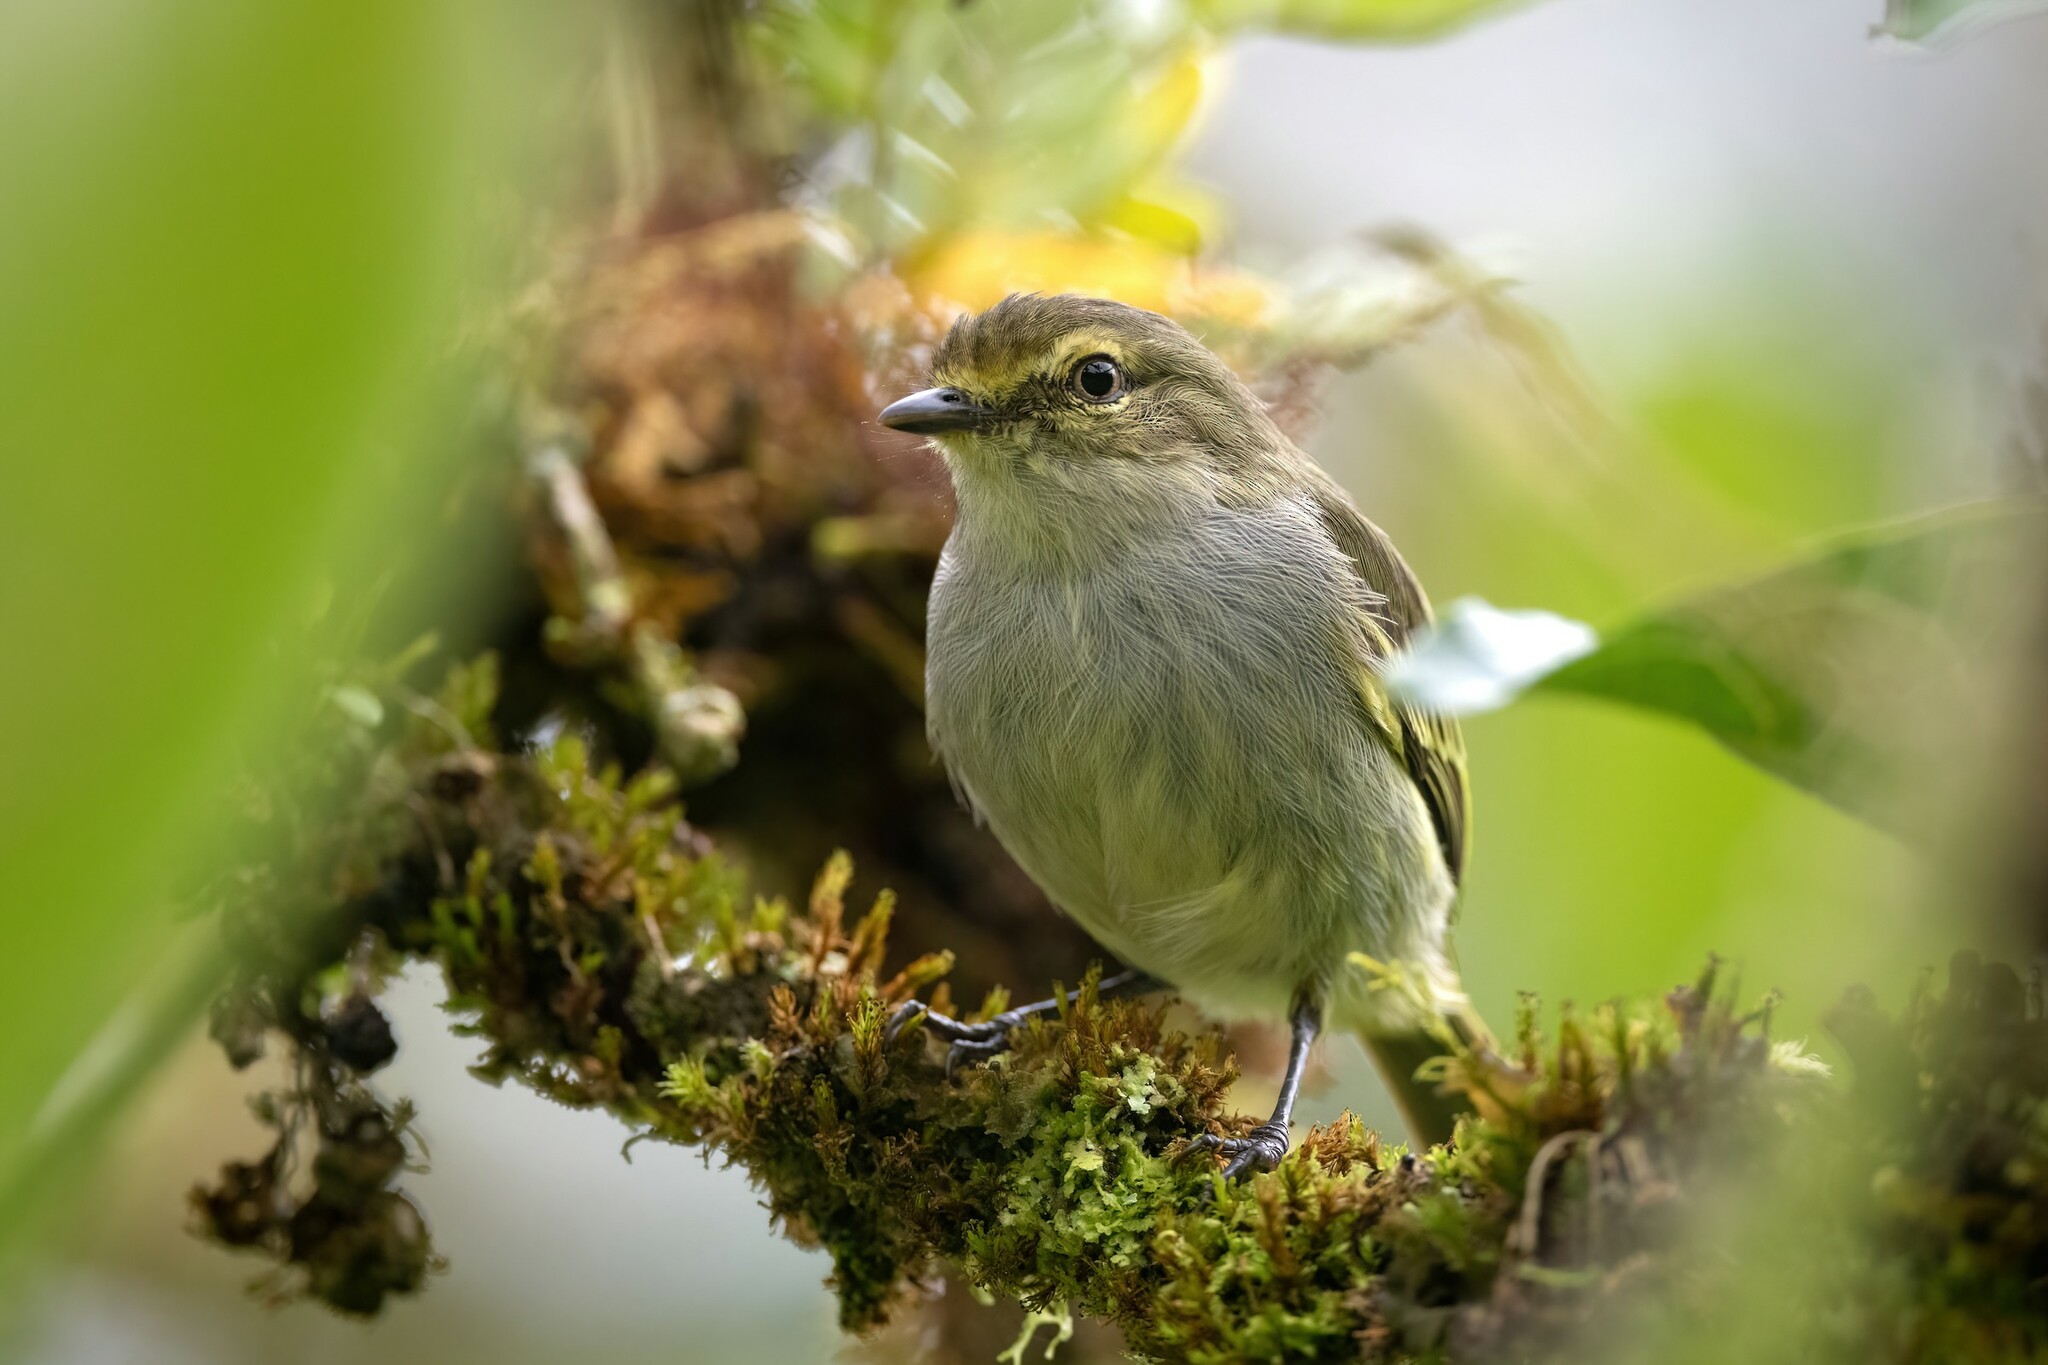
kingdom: Animalia
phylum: Chordata
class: Aves
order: Passeriformes
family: Tyrannidae
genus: Zimmerius
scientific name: Zimmerius chrysops
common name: Golden-faced tyrannulet
